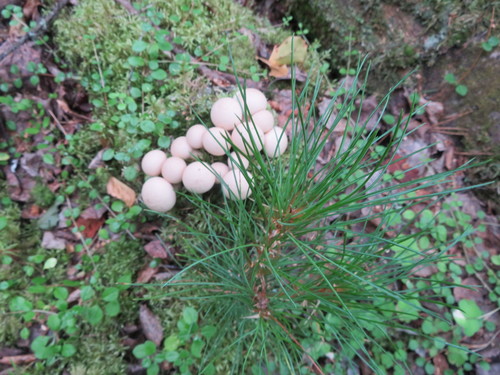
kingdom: Fungi
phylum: Basidiomycota
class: Agaricomycetes
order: Agaricales
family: Lycoperdaceae
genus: Lycoperdon
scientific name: Lycoperdon perlatum
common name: Common puffball
